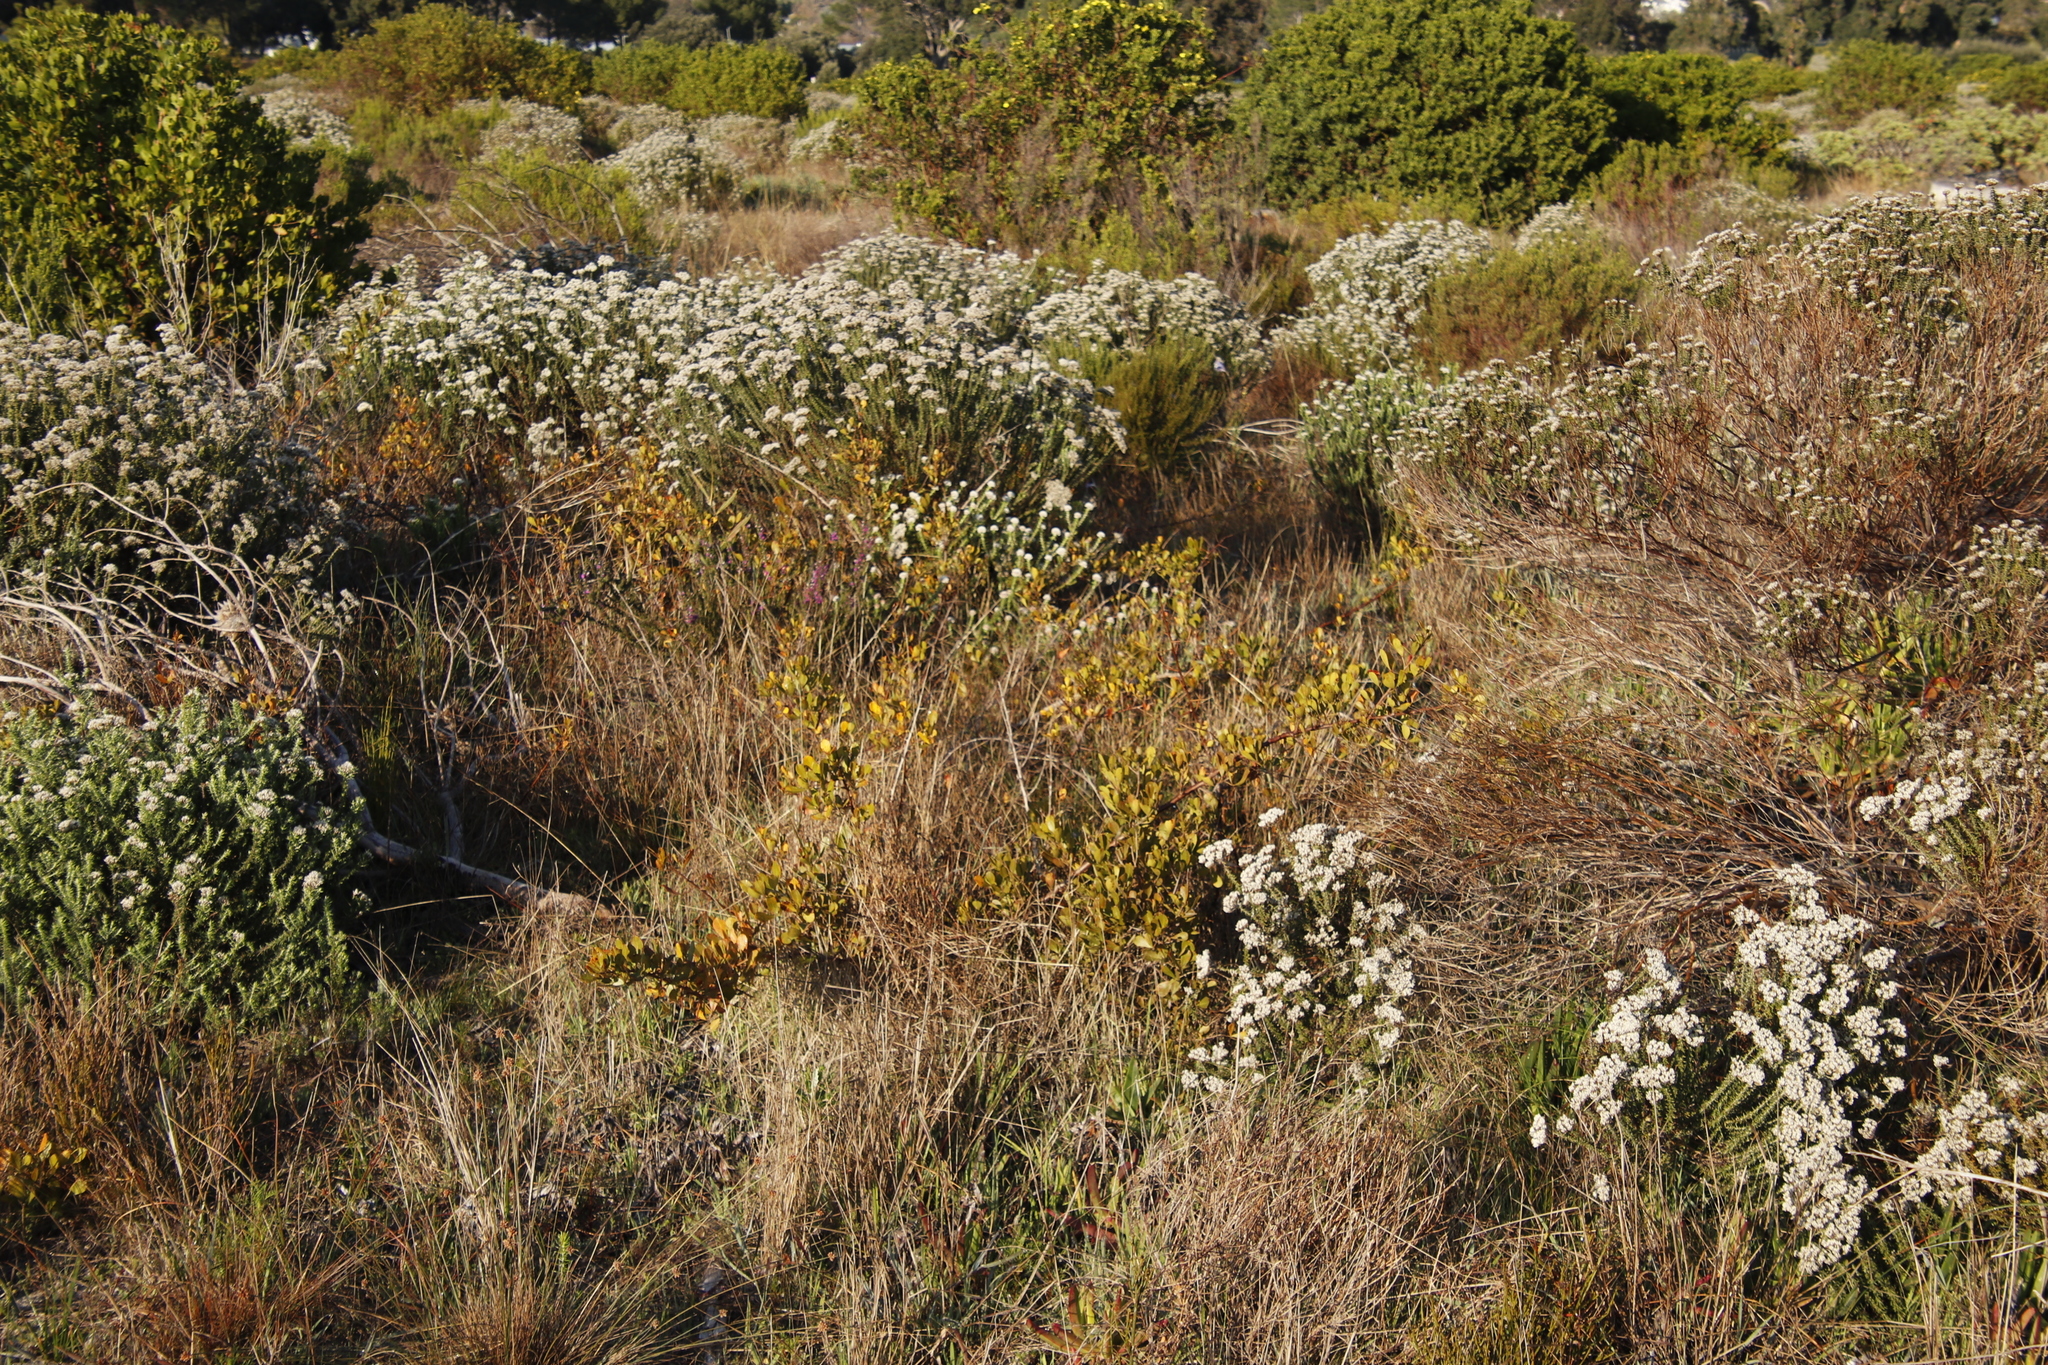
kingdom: Plantae
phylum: Tracheophyta
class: Magnoliopsida
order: Sapindales
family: Anacardiaceae
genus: Searsia
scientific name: Searsia laevigata
